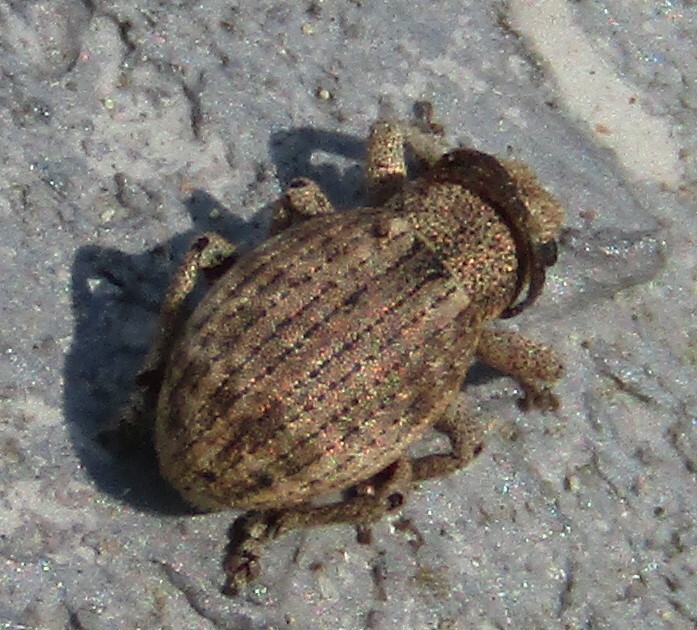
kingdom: Animalia
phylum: Arthropoda
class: Insecta
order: Coleoptera
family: Curculionidae
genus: Strophosoma
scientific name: Strophosoma capitatum
